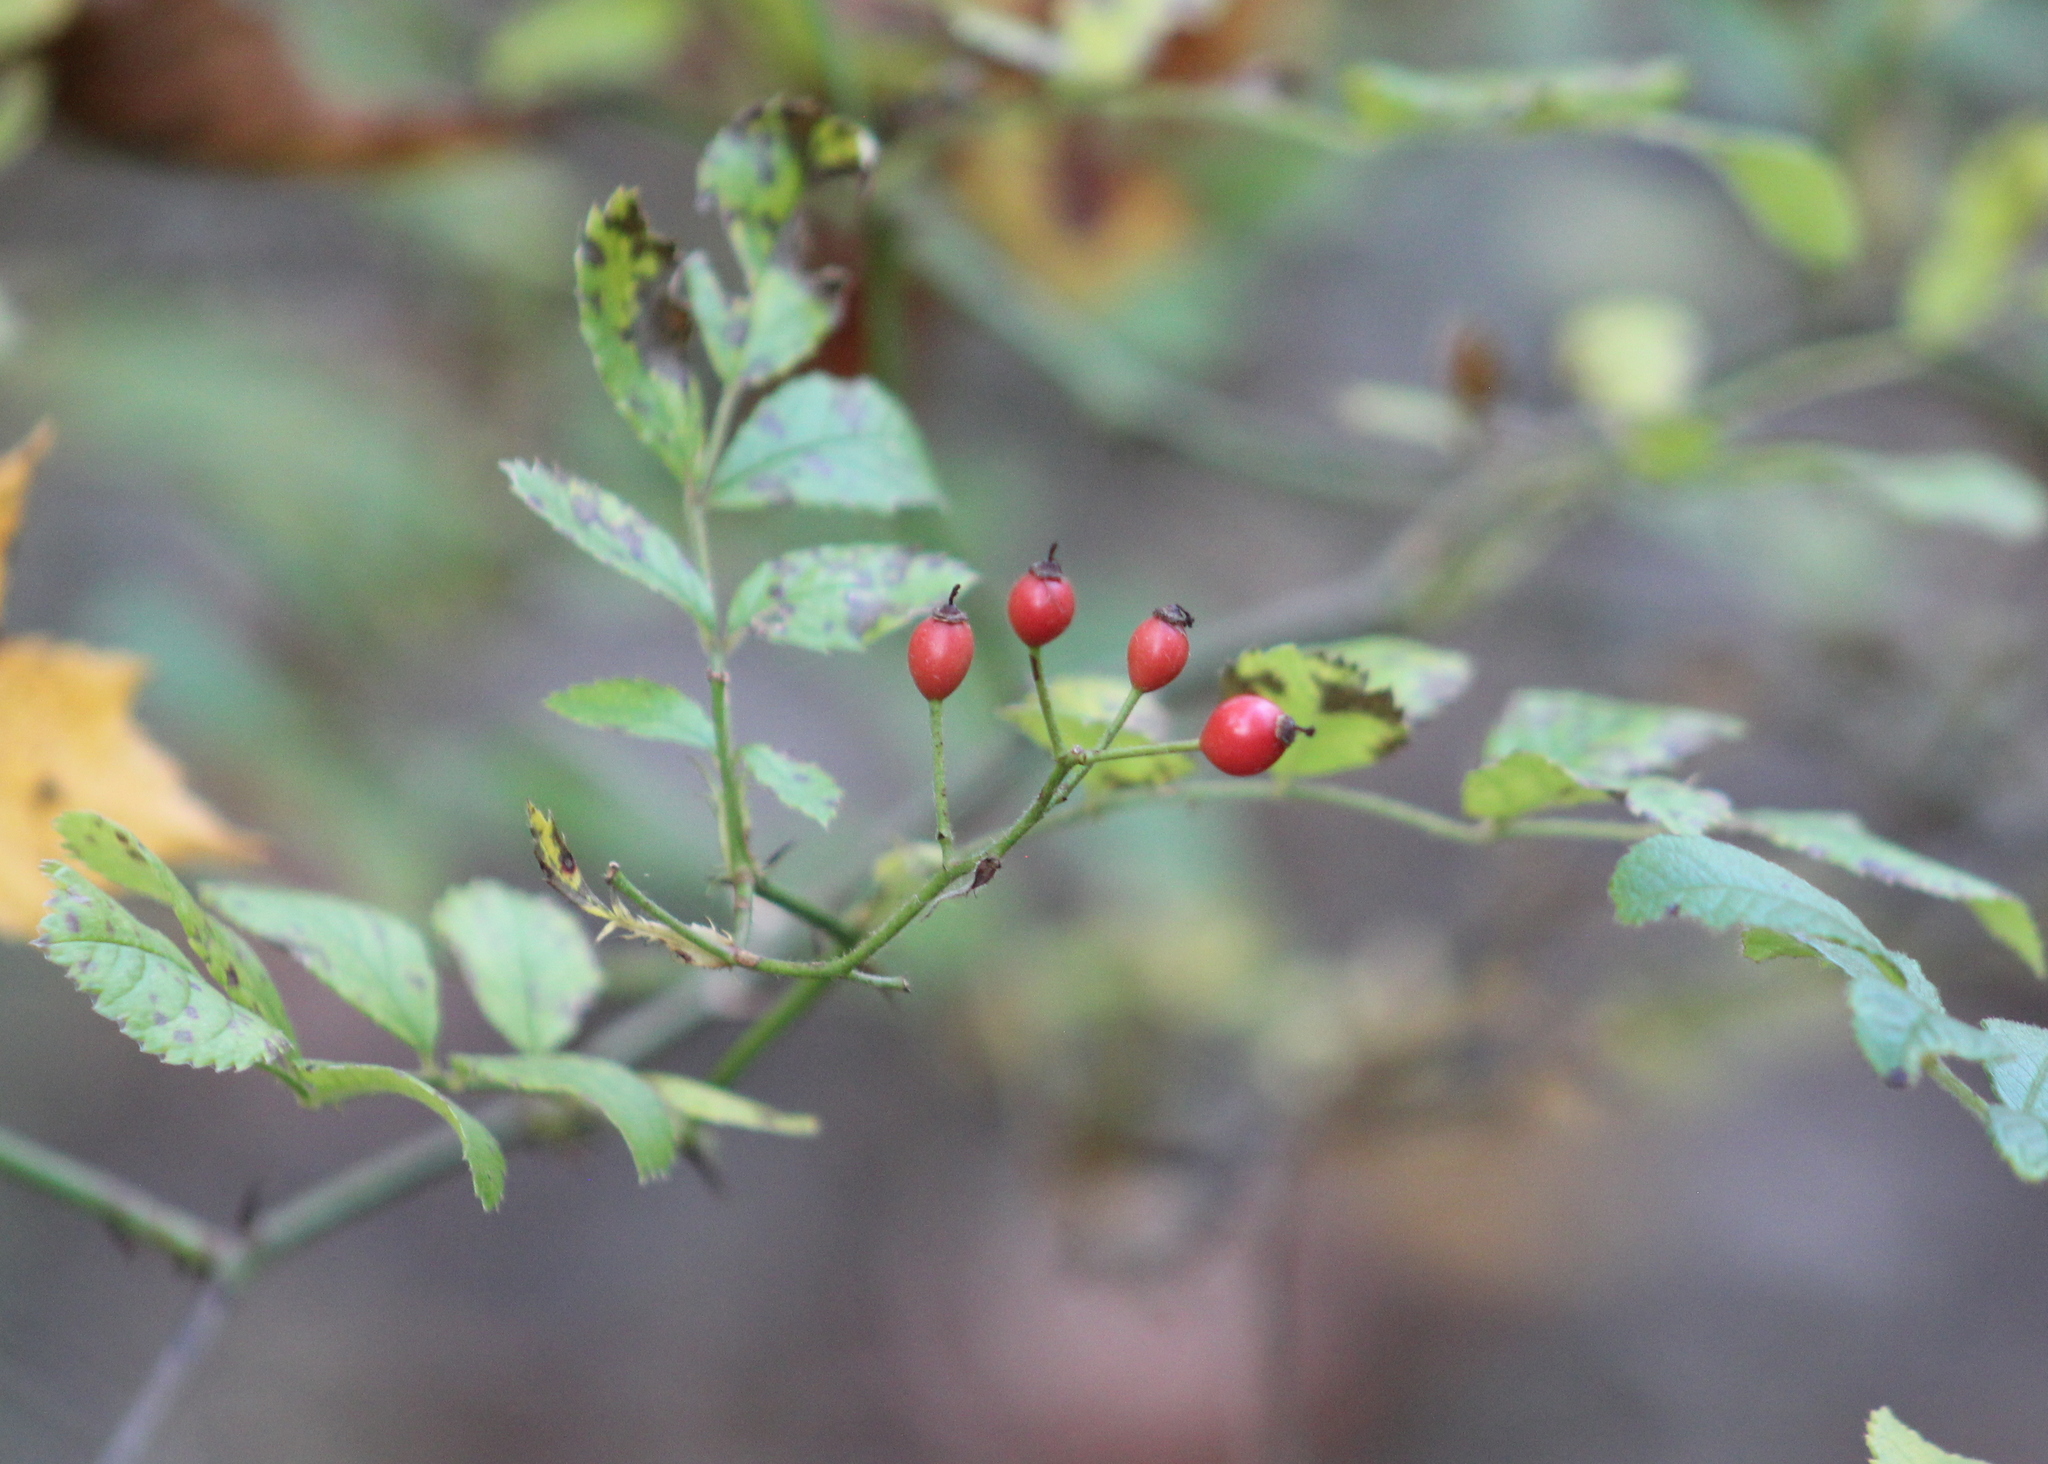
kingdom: Plantae
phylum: Tracheophyta
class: Magnoliopsida
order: Rosales
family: Rosaceae
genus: Rosa
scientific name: Rosa multiflora
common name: Multiflora rose
